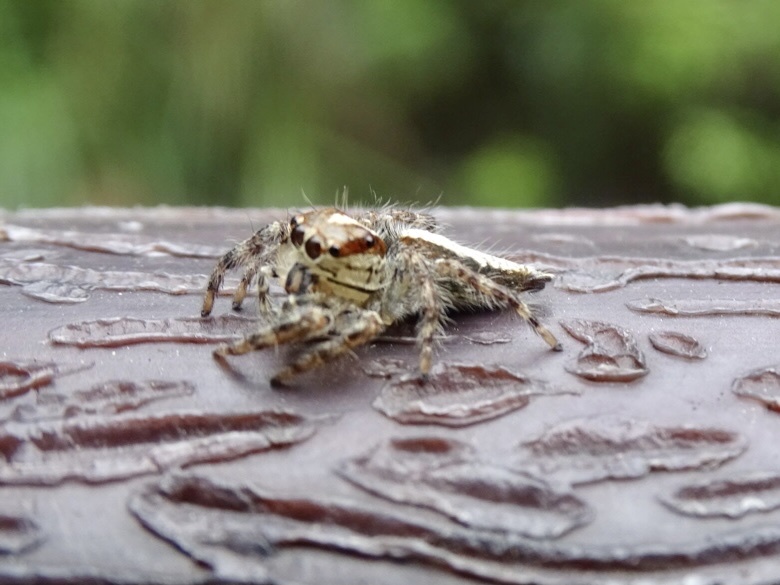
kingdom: Animalia
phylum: Arthropoda
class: Arachnida
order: Araneae
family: Salticidae
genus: Pancorius
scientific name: Pancorius crassipes
